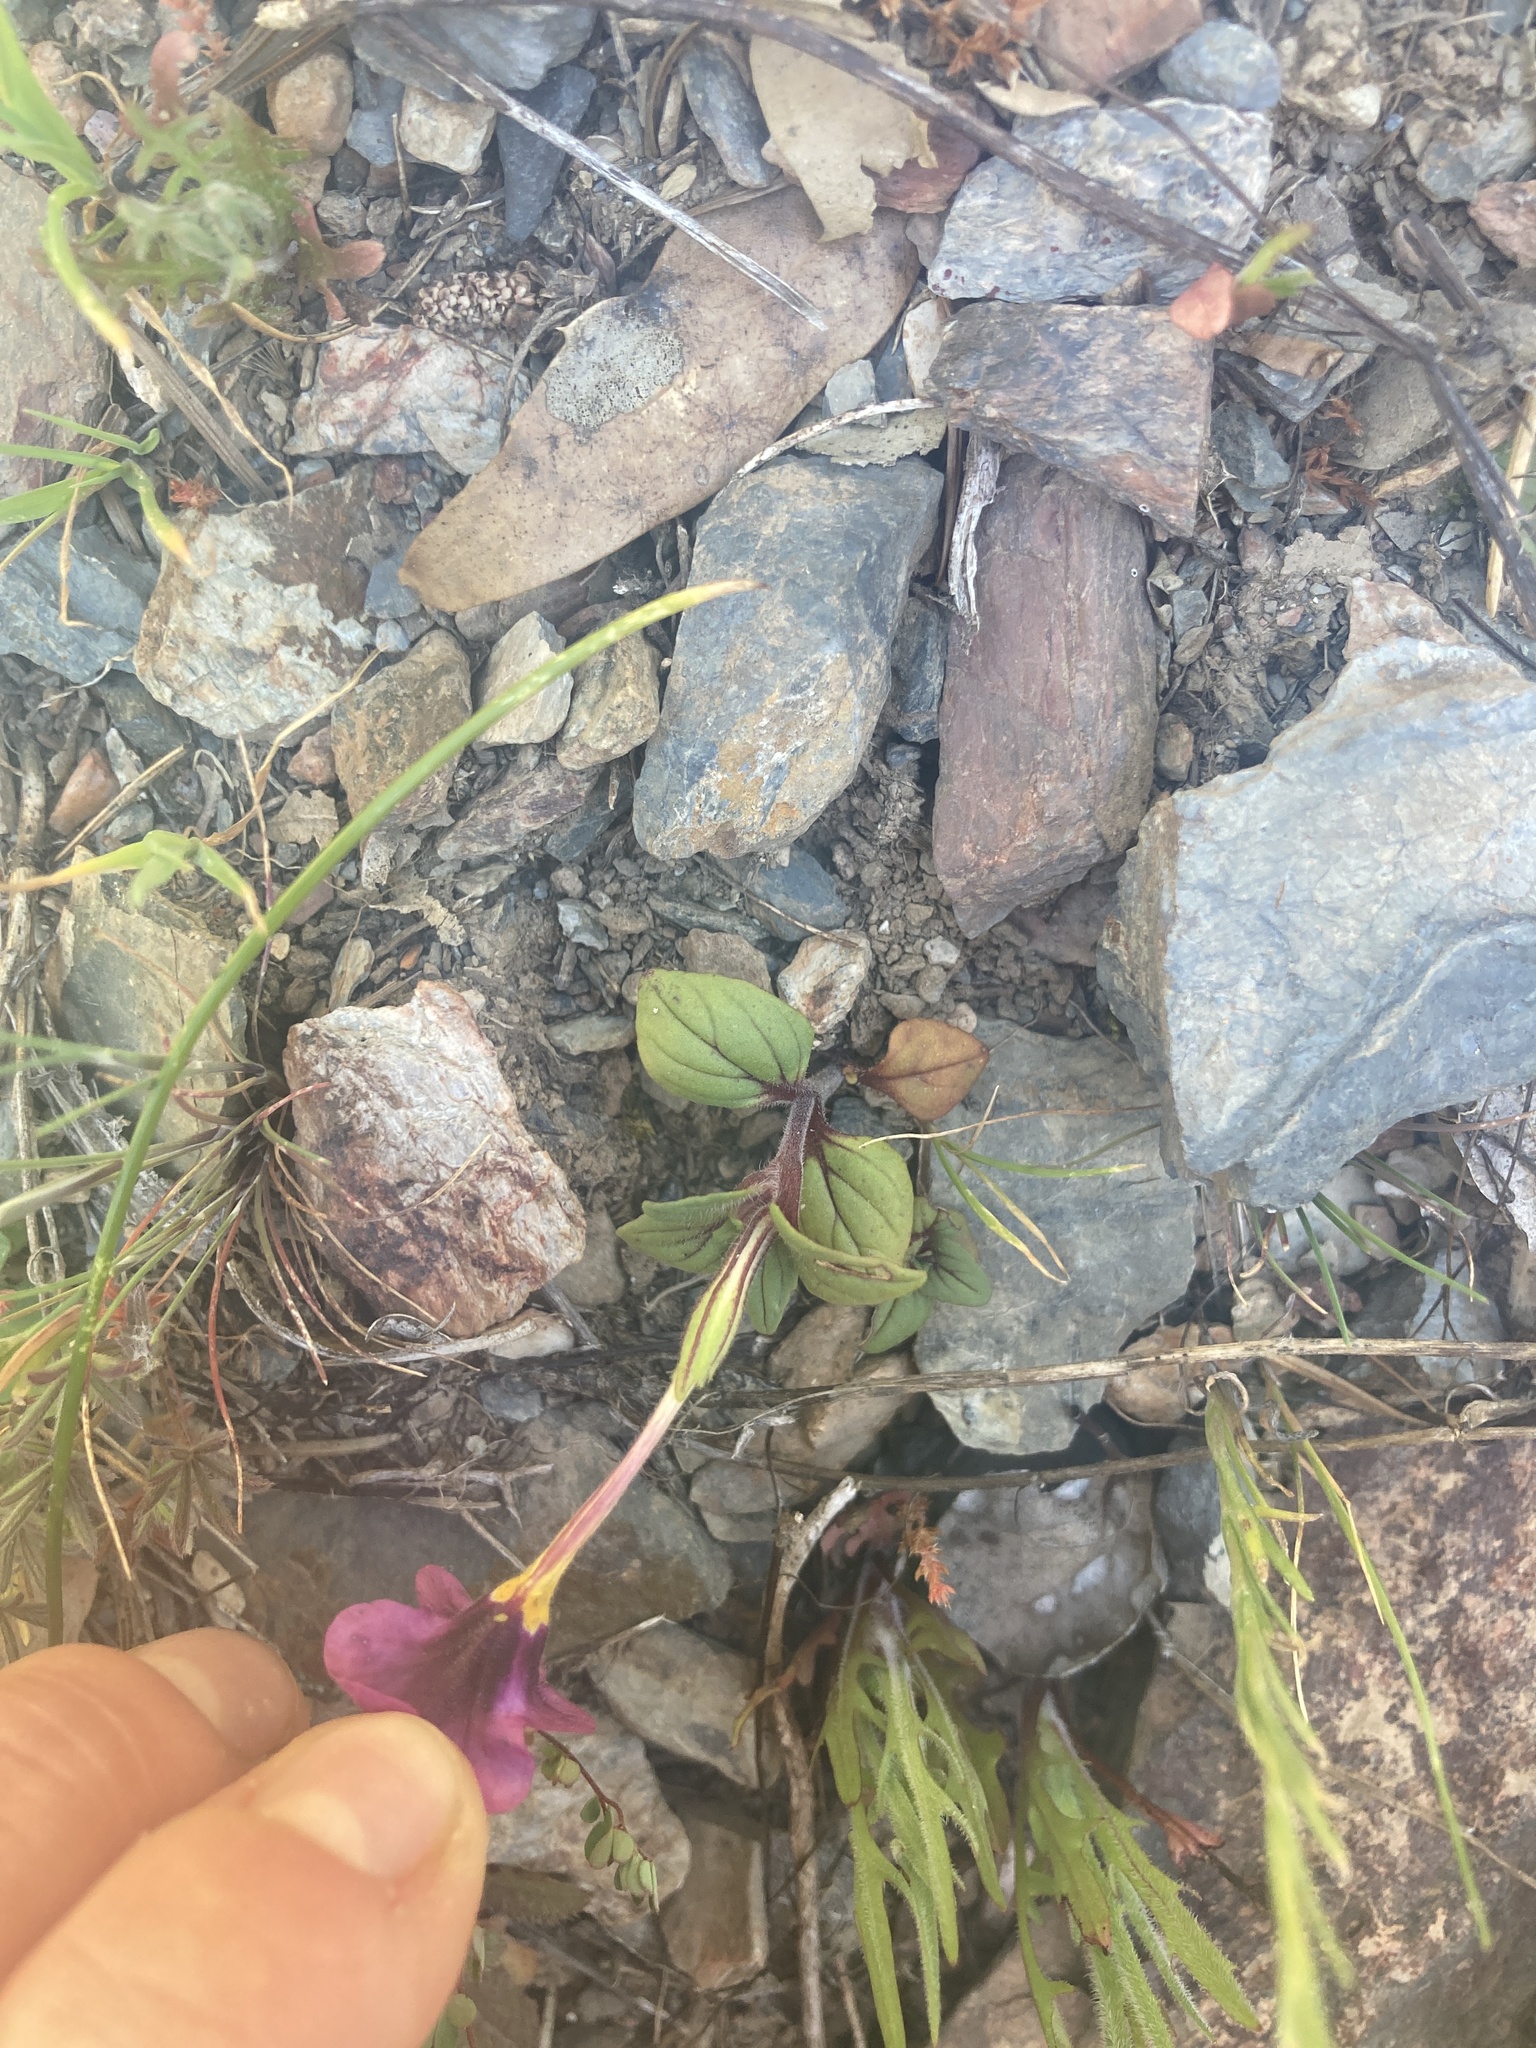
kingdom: Plantae
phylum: Tracheophyta
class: Magnoliopsida
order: Lamiales
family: Phrymaceae
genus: Diplacus
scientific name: Diplacus kelloggii
